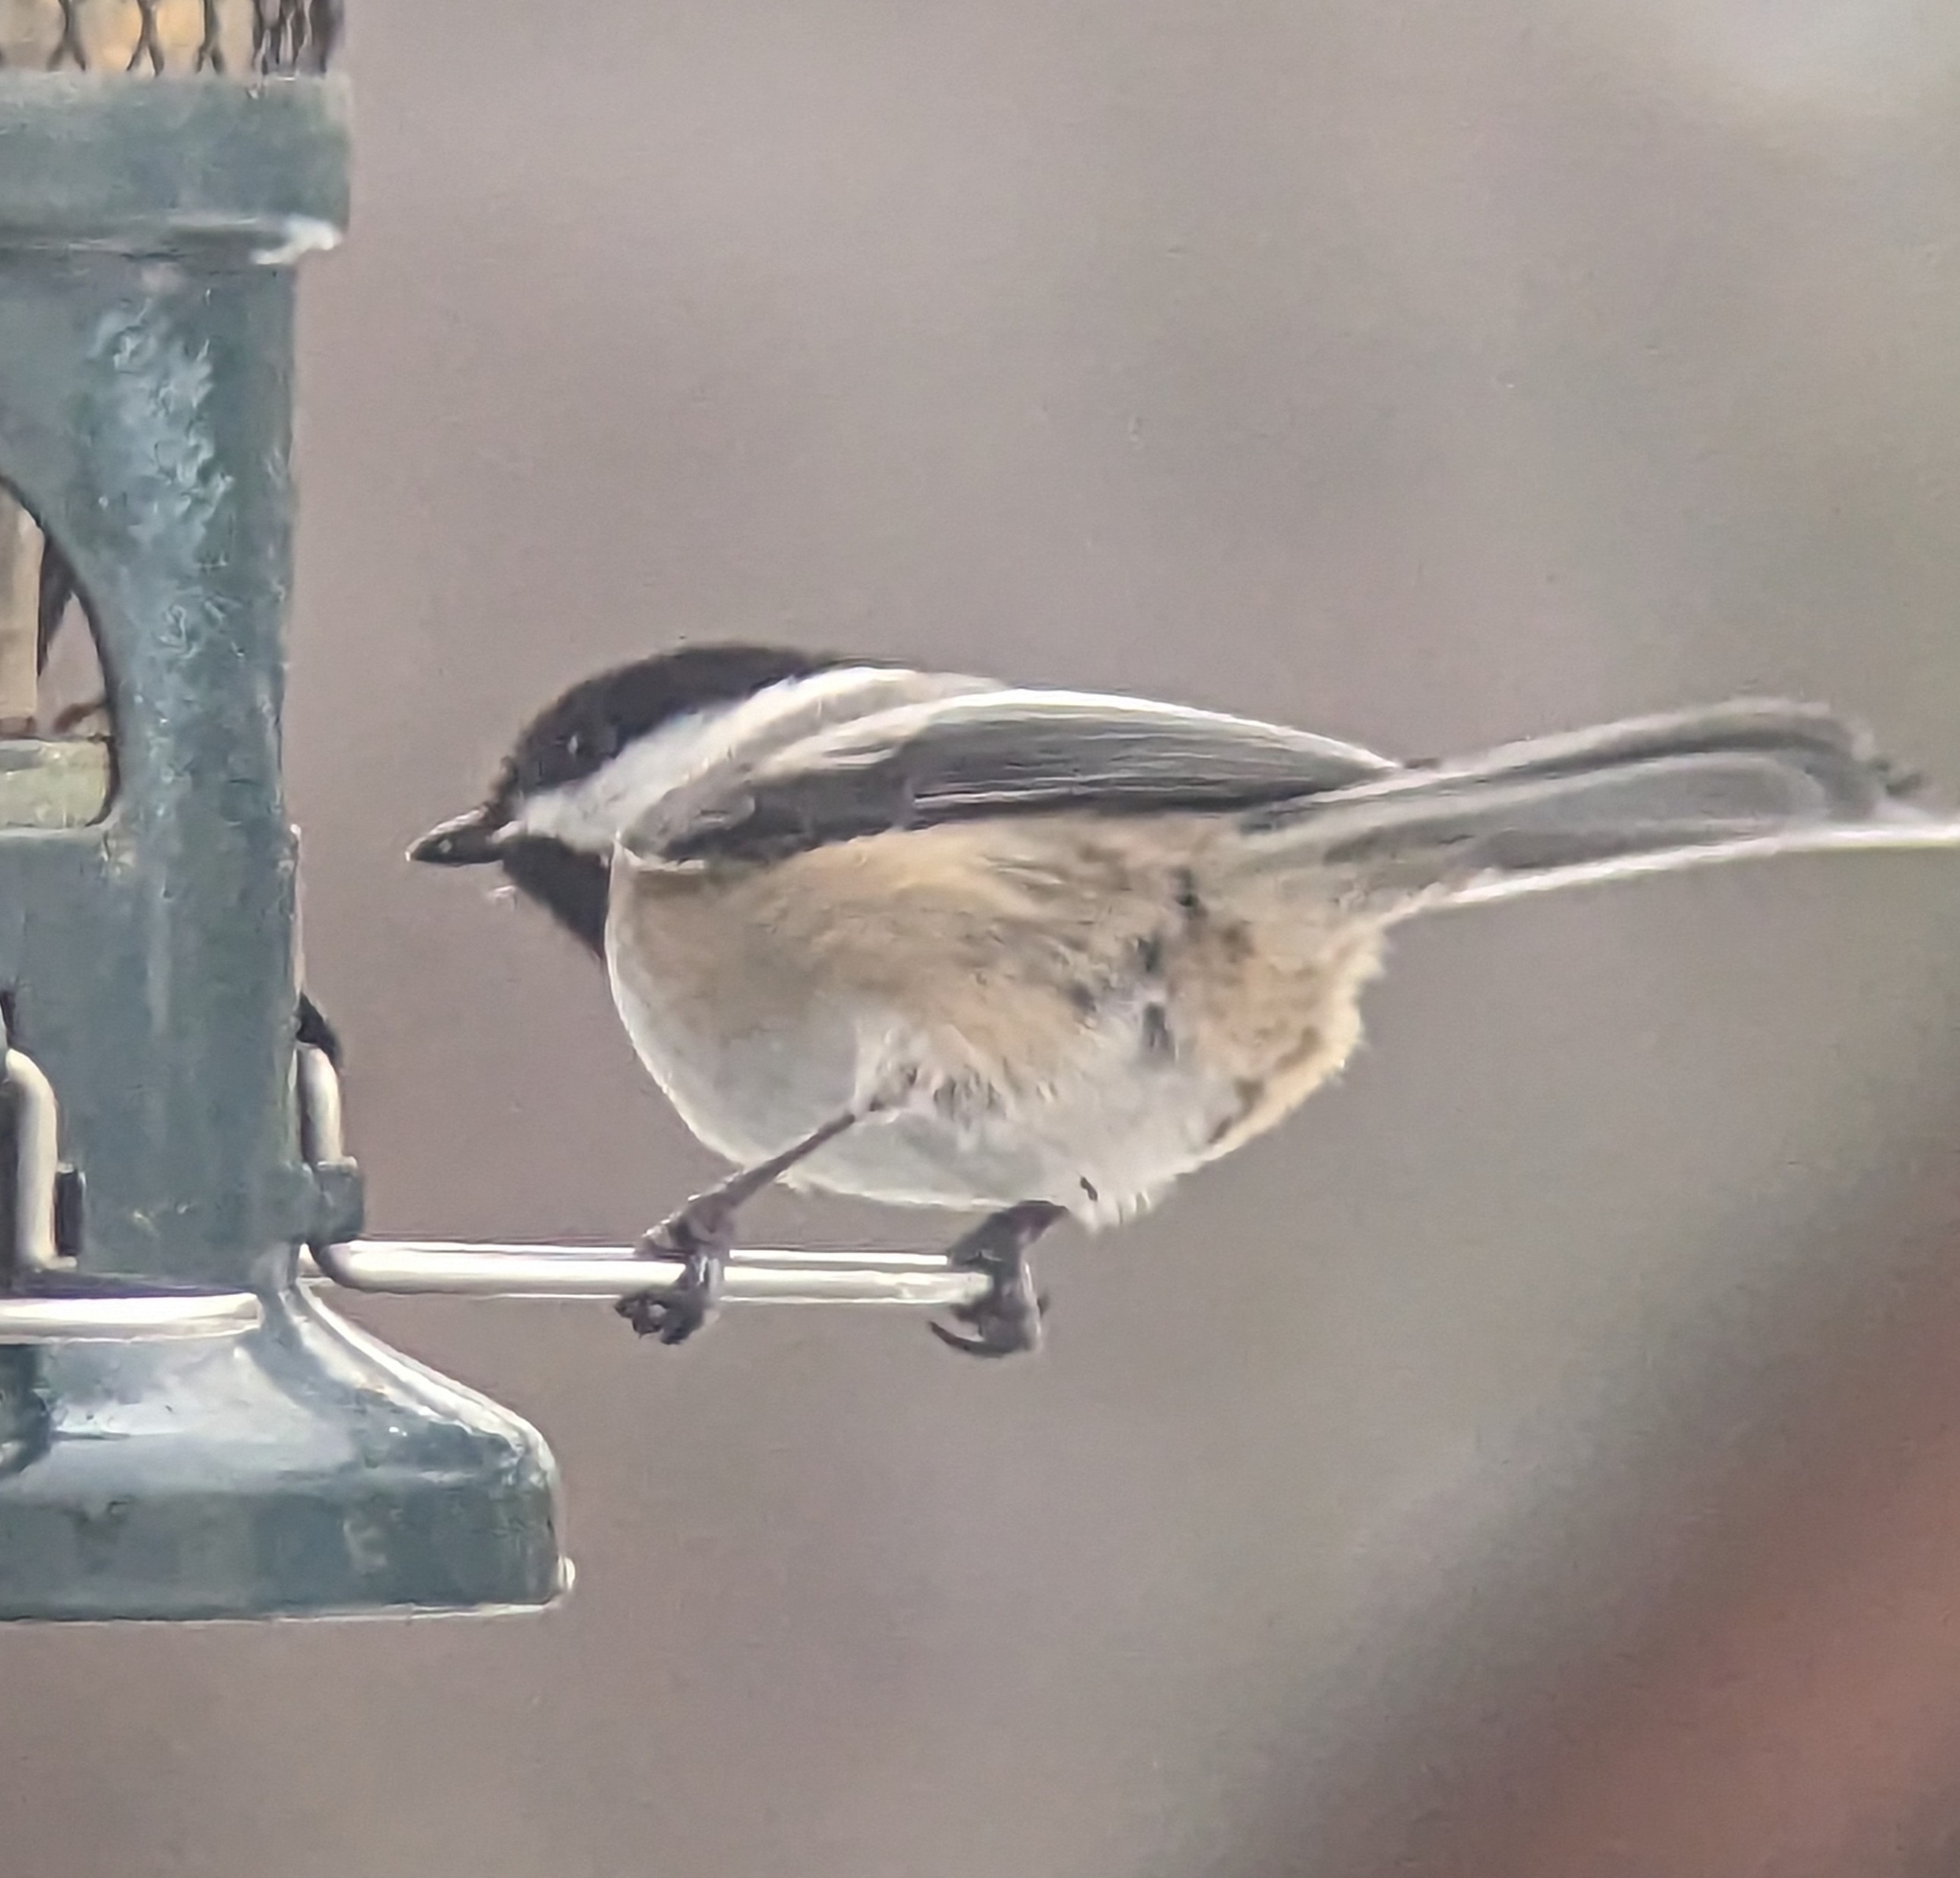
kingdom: Animalia
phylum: Chordata
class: Aves
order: Passeriformes
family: Paridae
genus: Poecile
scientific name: Poecile atricapillus
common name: Black-capped chickadee
